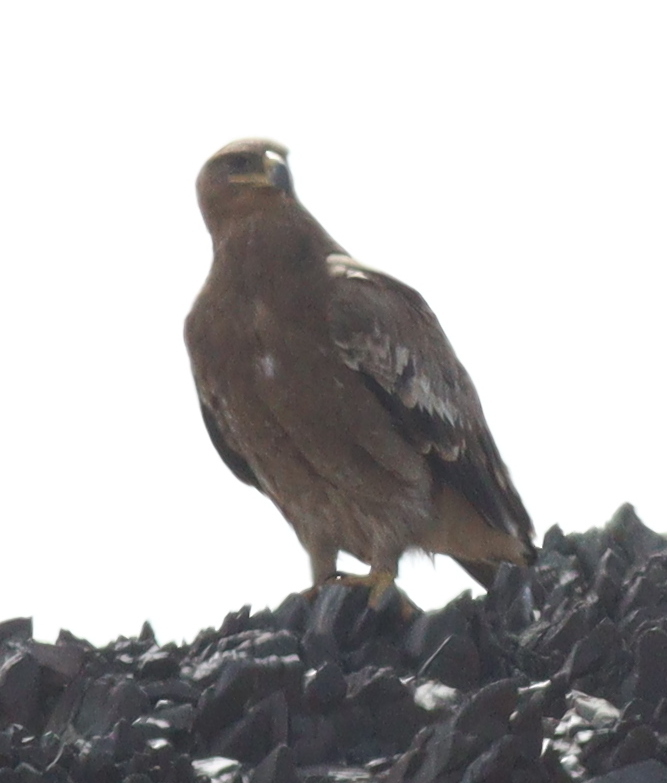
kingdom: Animalia
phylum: Chordata
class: Aves
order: Accipitriformes
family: Accipitridae
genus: Aquila
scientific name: Aquila nipalensis
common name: Steppe eagle
